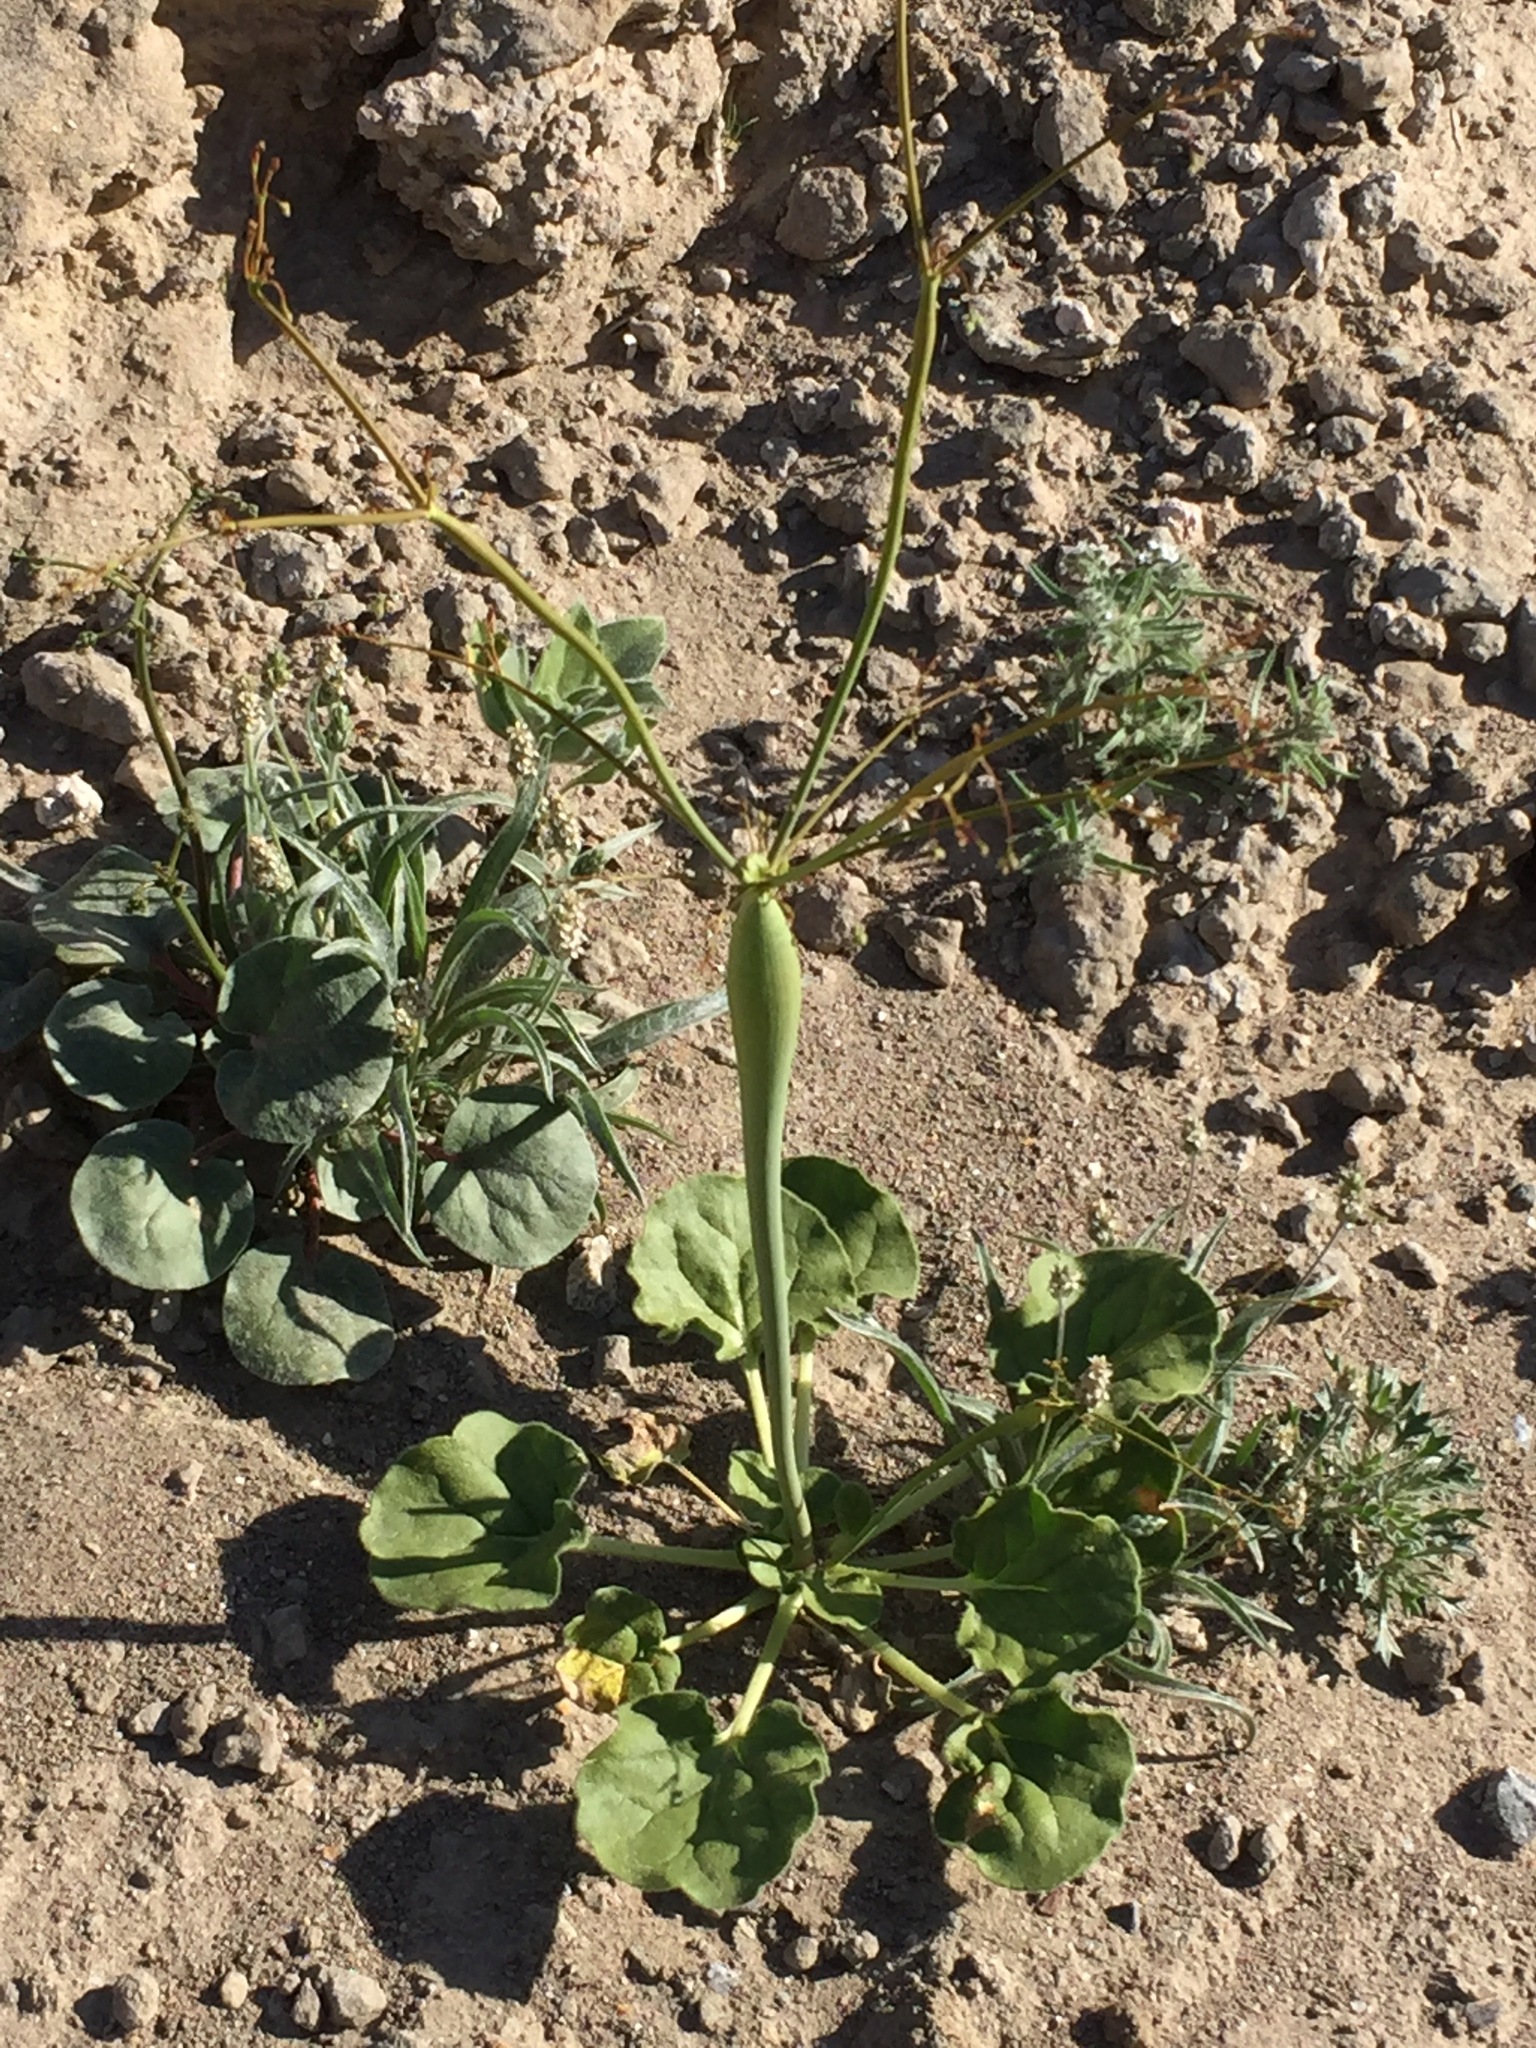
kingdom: Plantae
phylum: Tracheophyta
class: Magnoliopsida
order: Caryophyllales
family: Polygonaceae
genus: Eriogonum
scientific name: Eriogonum trichopes
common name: Little desert trumpet
